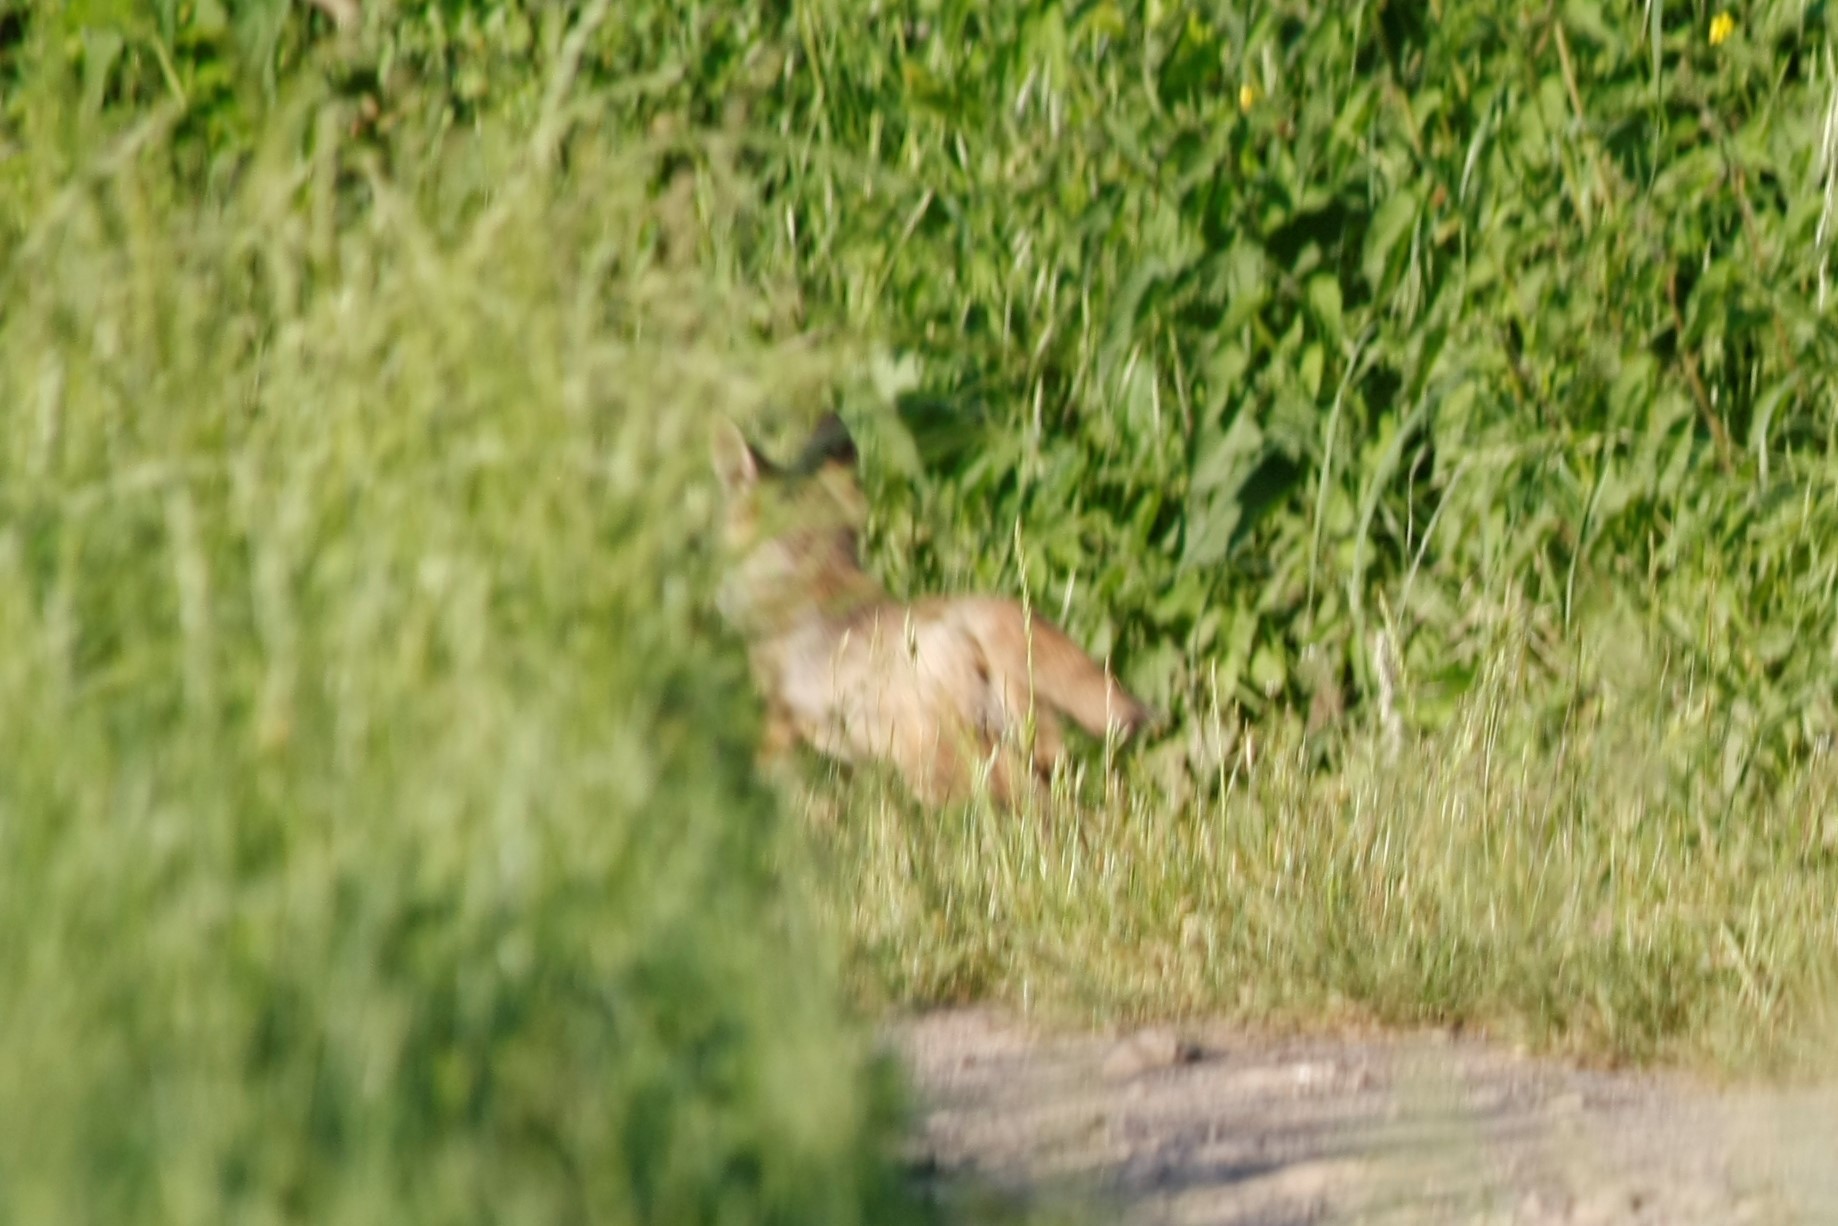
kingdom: Animalia
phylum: Chordata
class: Mammalia
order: Carnivora
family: Canidae
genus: Vulpes
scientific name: Vulpes vulpes
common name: Red fox
